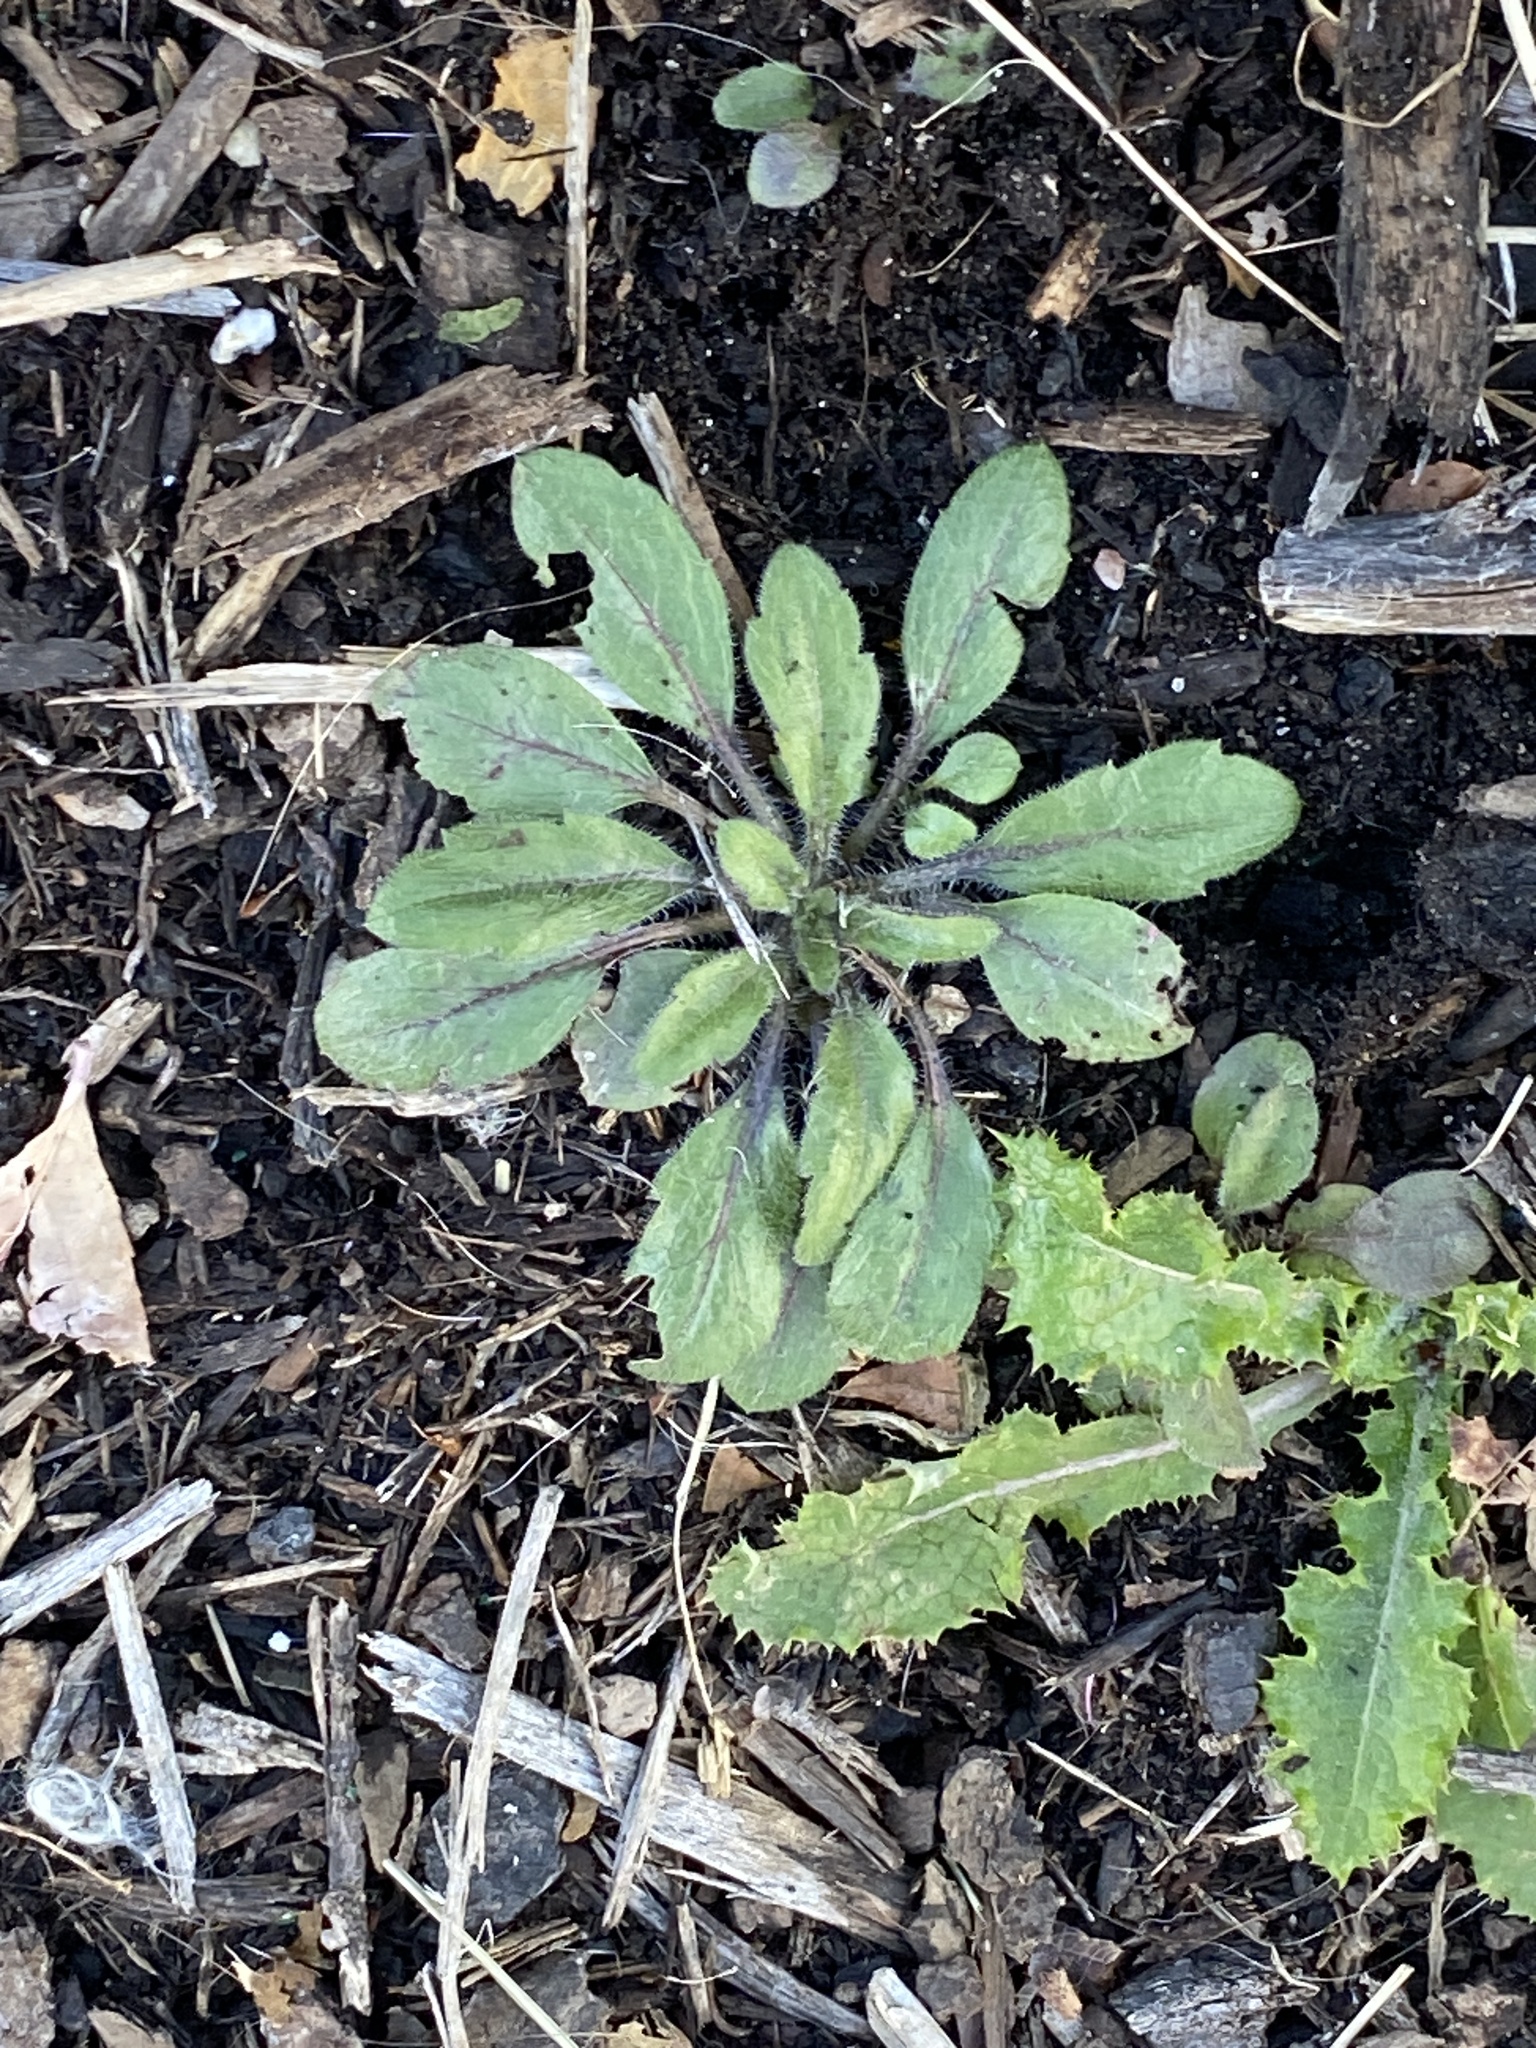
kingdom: Plantae
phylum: Tracheophyta
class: Magnoliopsida
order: Asterales
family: Asteraceae
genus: Erigeron
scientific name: Erigeron canadensis
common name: Canadian fleabane
